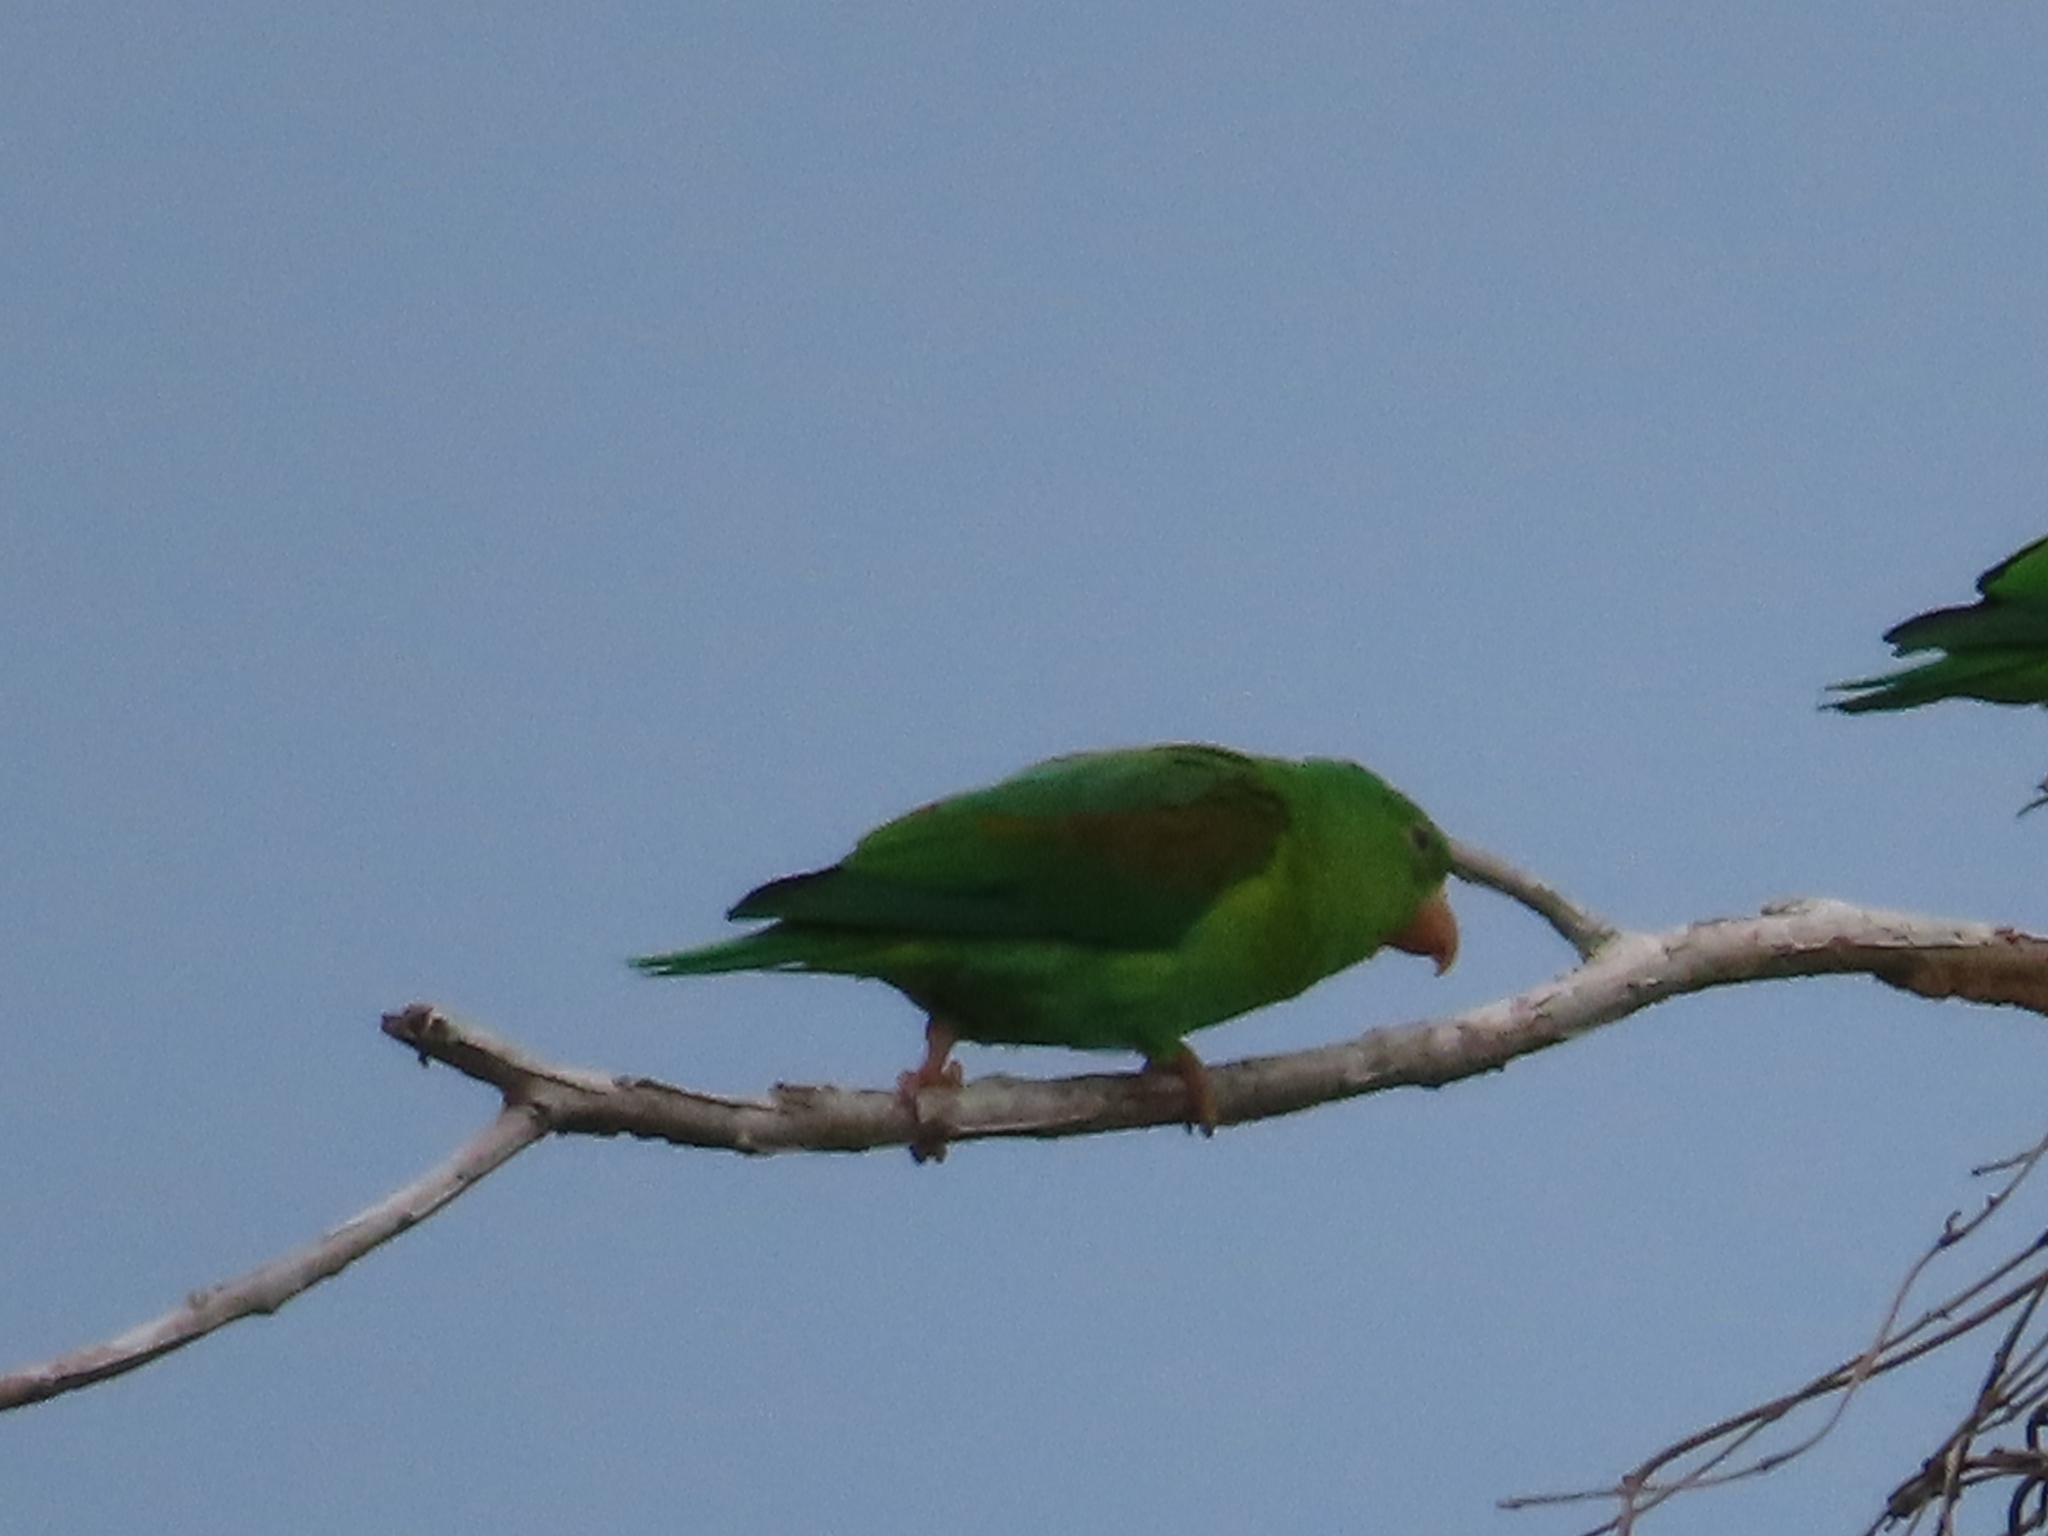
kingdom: Animalia
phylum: Chordata
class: Aves
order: Psittaciformes
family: Psittacidae
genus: Brotogeris
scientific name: Brotogeris jugularis
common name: Orange-chinned parakeet
